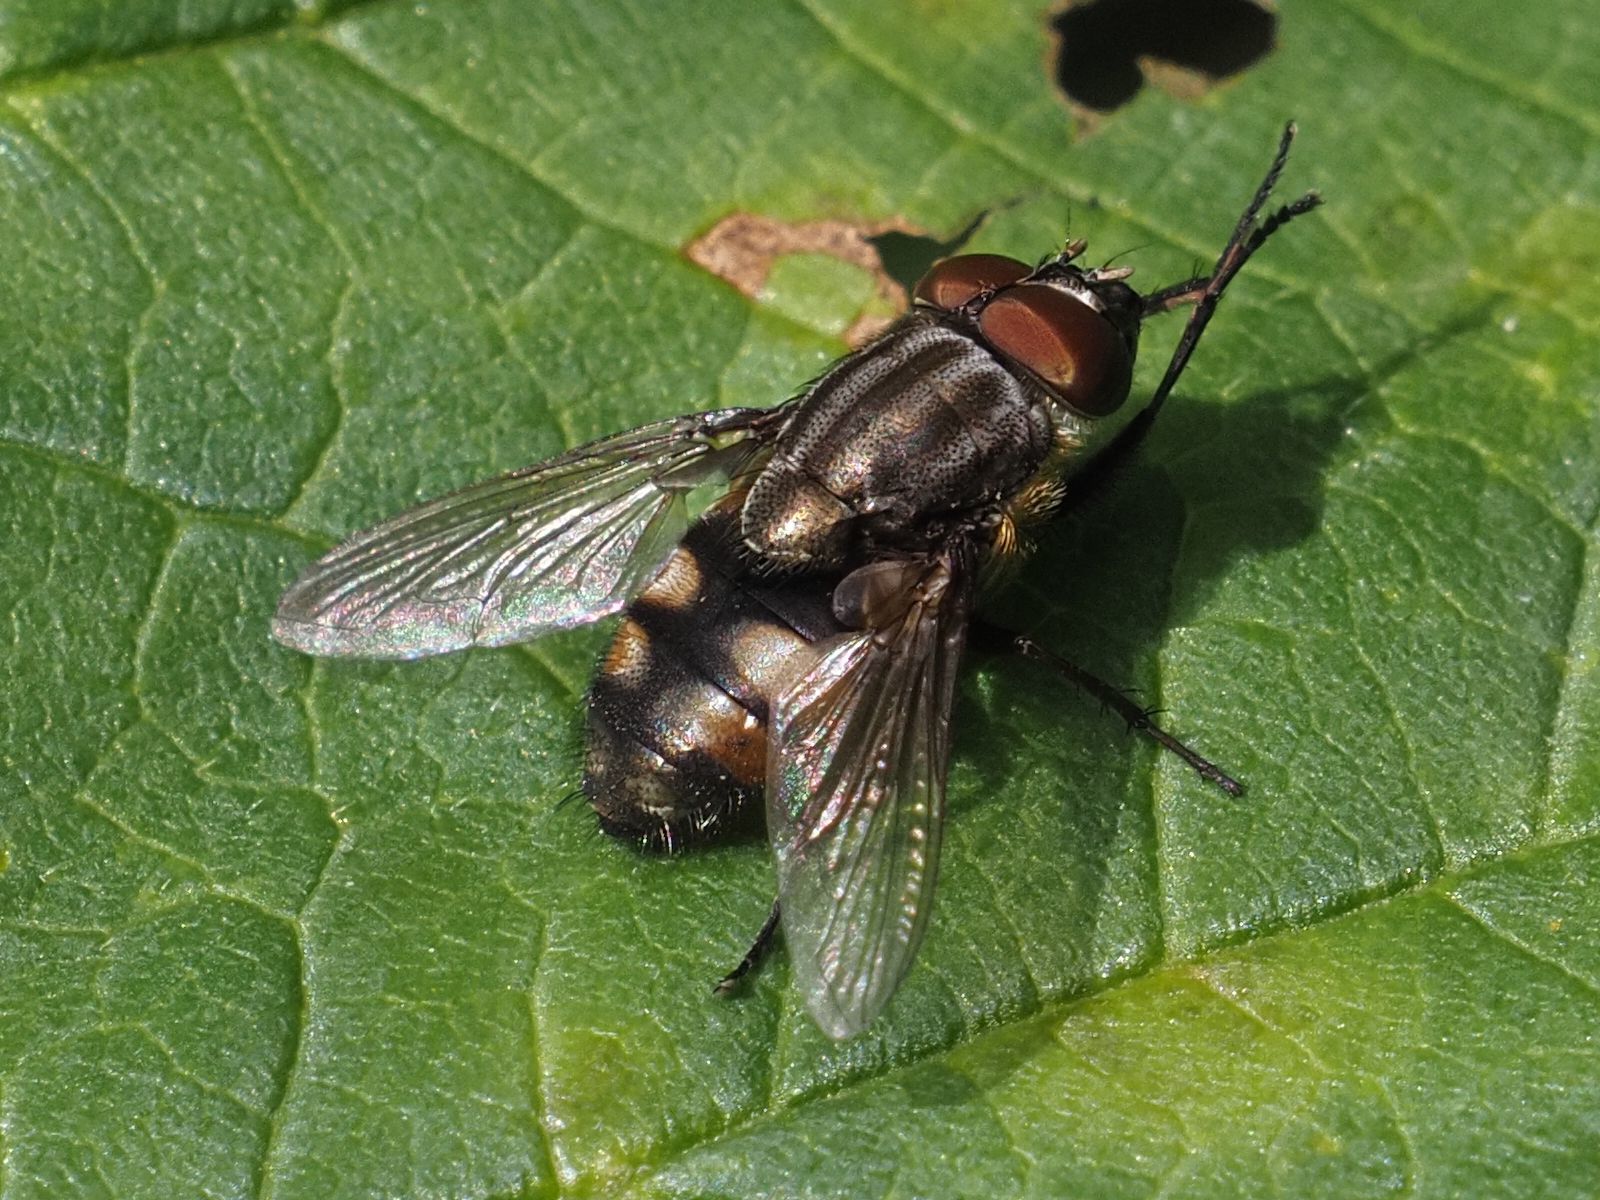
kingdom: Animalia
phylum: Arthropoda
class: Insecta
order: Diptera
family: Calliphoridae
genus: Stomorhina
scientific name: Stomorhina lunata
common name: Locust blowfly
